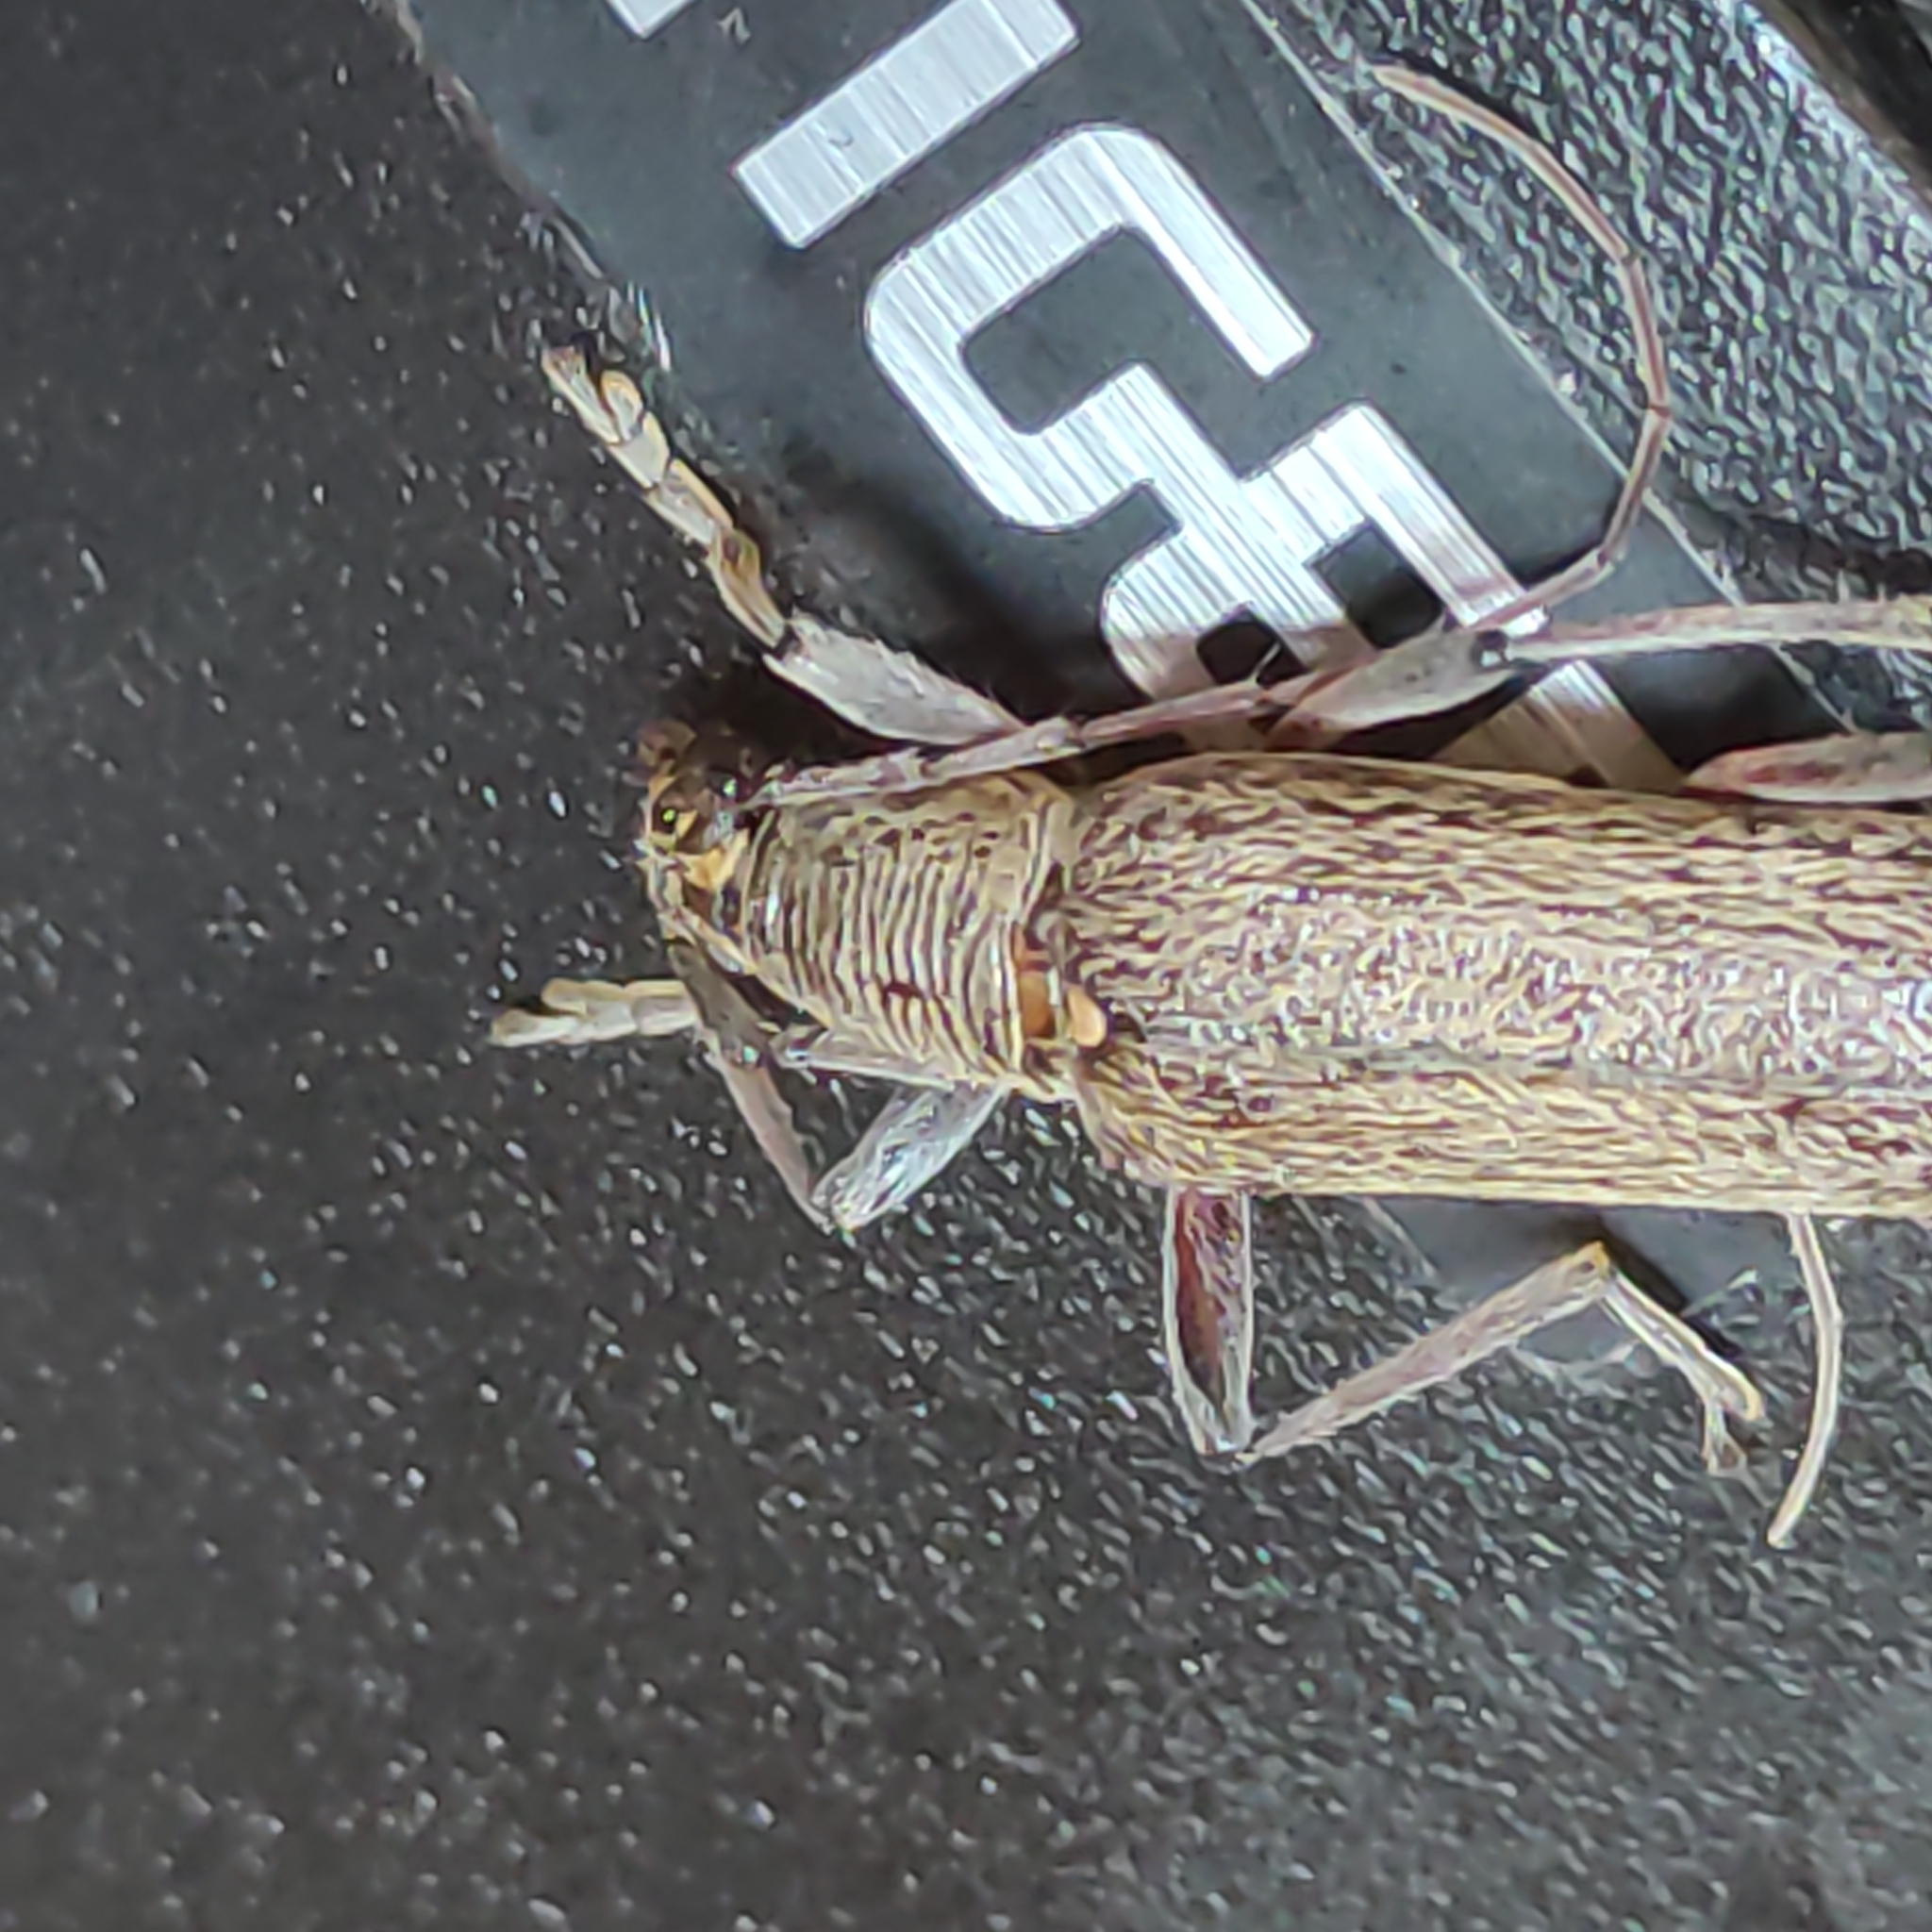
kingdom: Animalia
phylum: Arthropoda
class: Insecta
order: Coleoptera
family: Cerambycidae
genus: Oemona
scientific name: Oemona hirta
